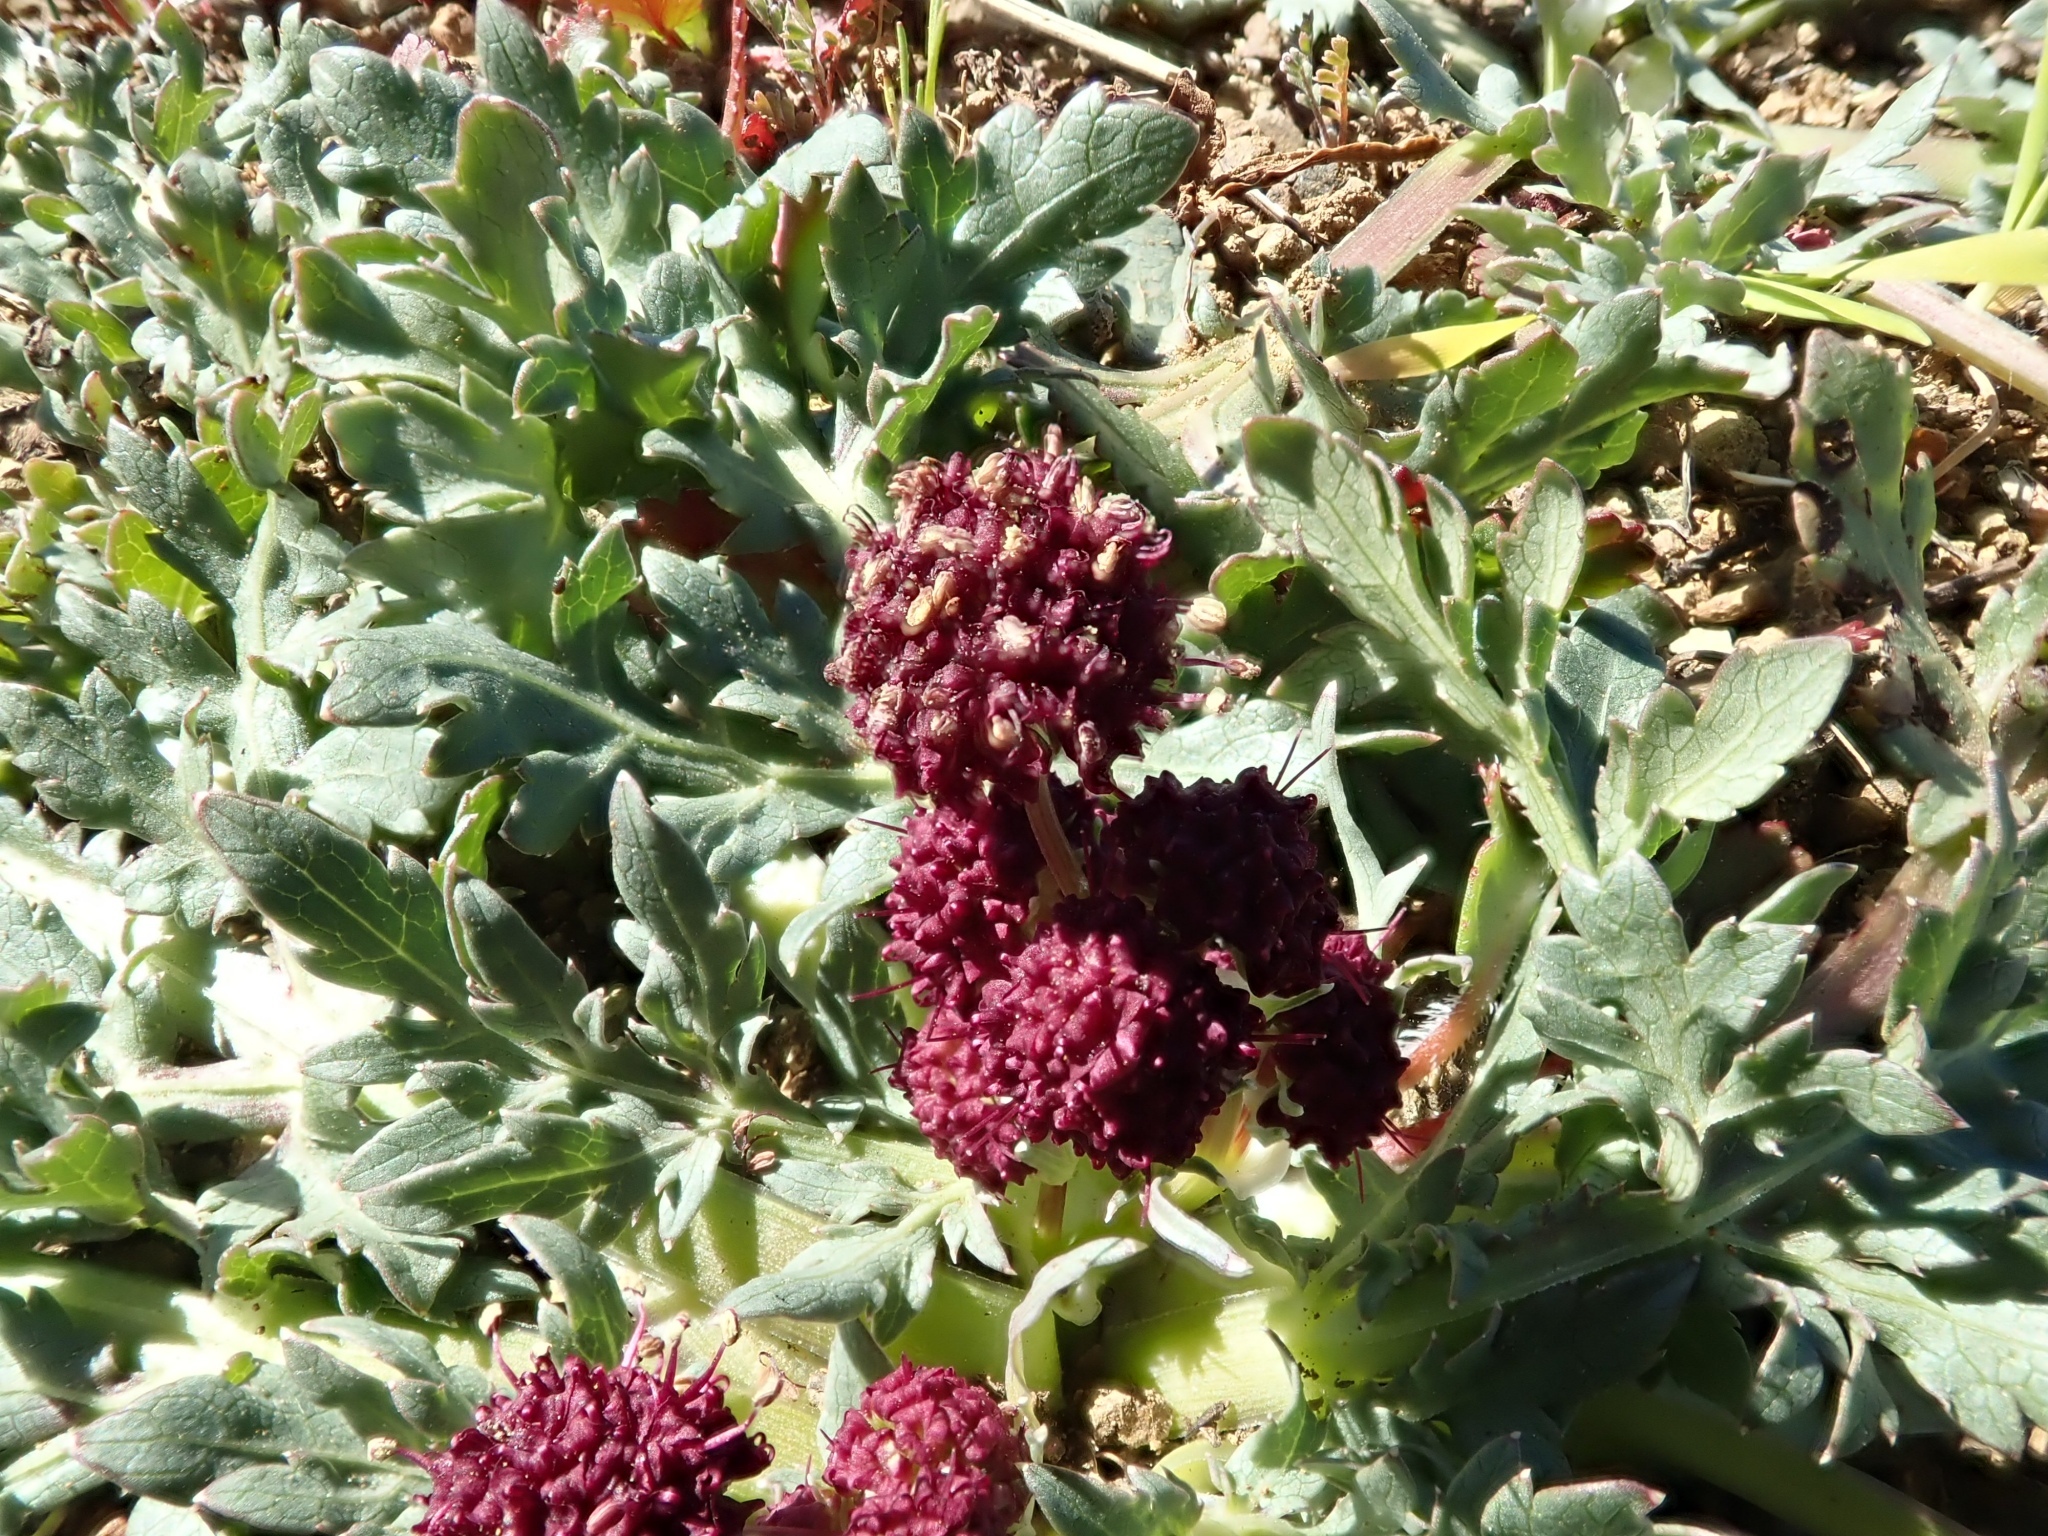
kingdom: Plantae
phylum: Tracheophyta
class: Magnoliopsida
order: Apiales
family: Apiaceae
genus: Sanicula
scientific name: Sanicula bipinnatifida
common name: Shoe-buttons
